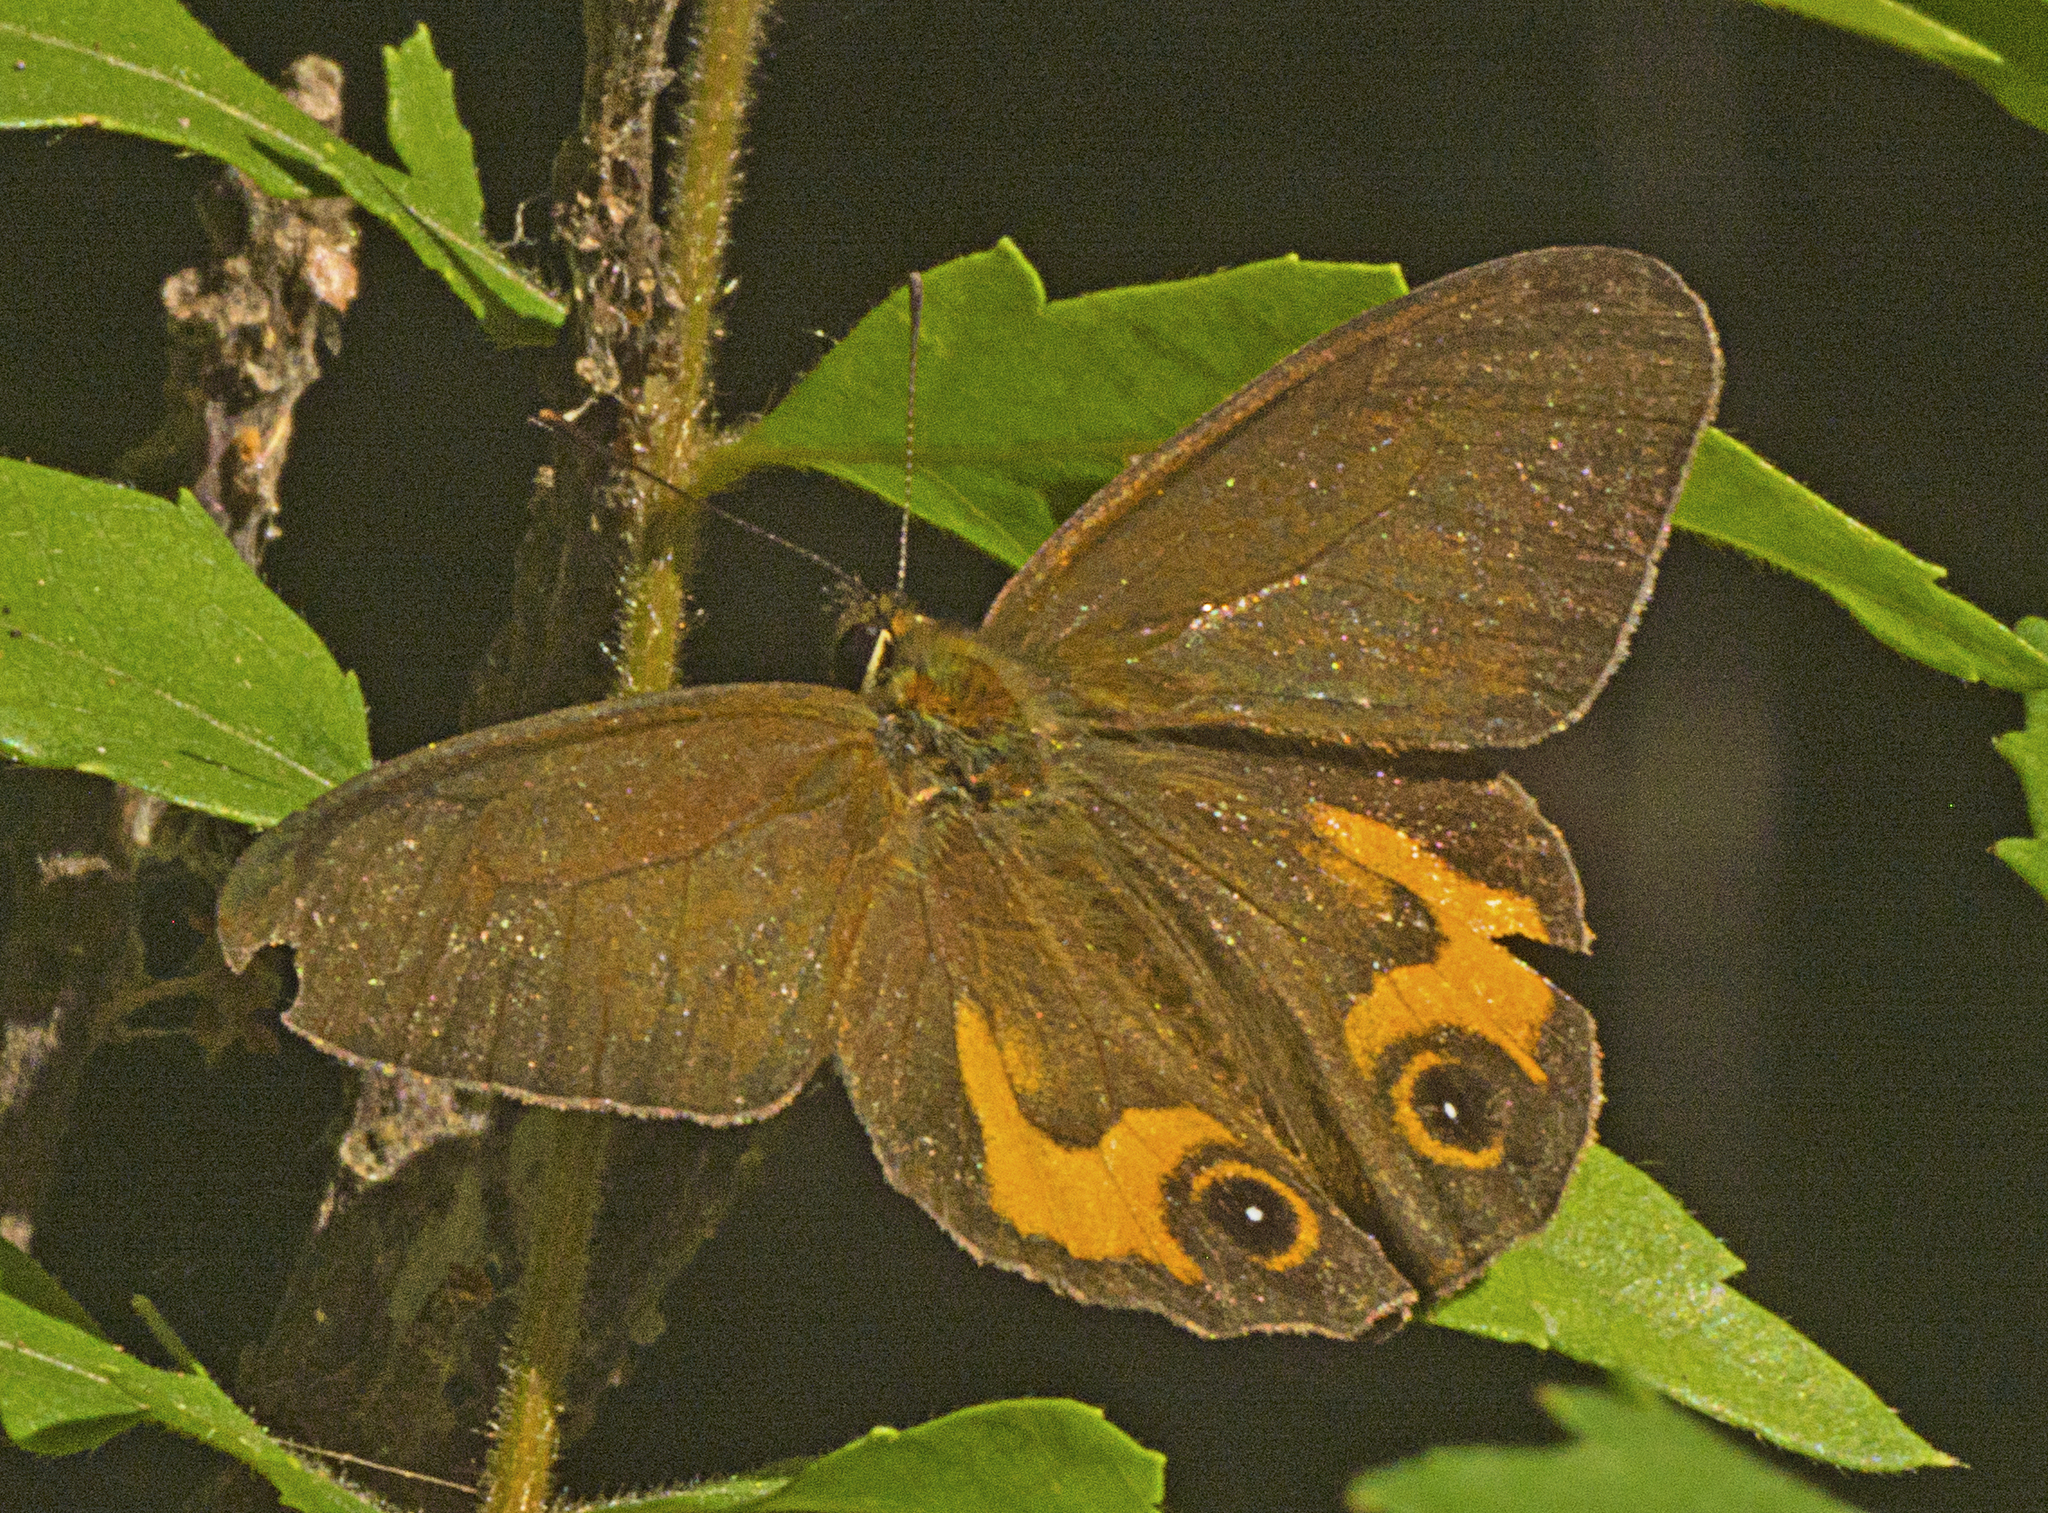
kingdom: Animalia
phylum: Arthropoda
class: Insecta
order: Lepidoptera
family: Nymphalidae
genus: Hypocysta
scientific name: Hypocysta metirius
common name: Brown ringlet
